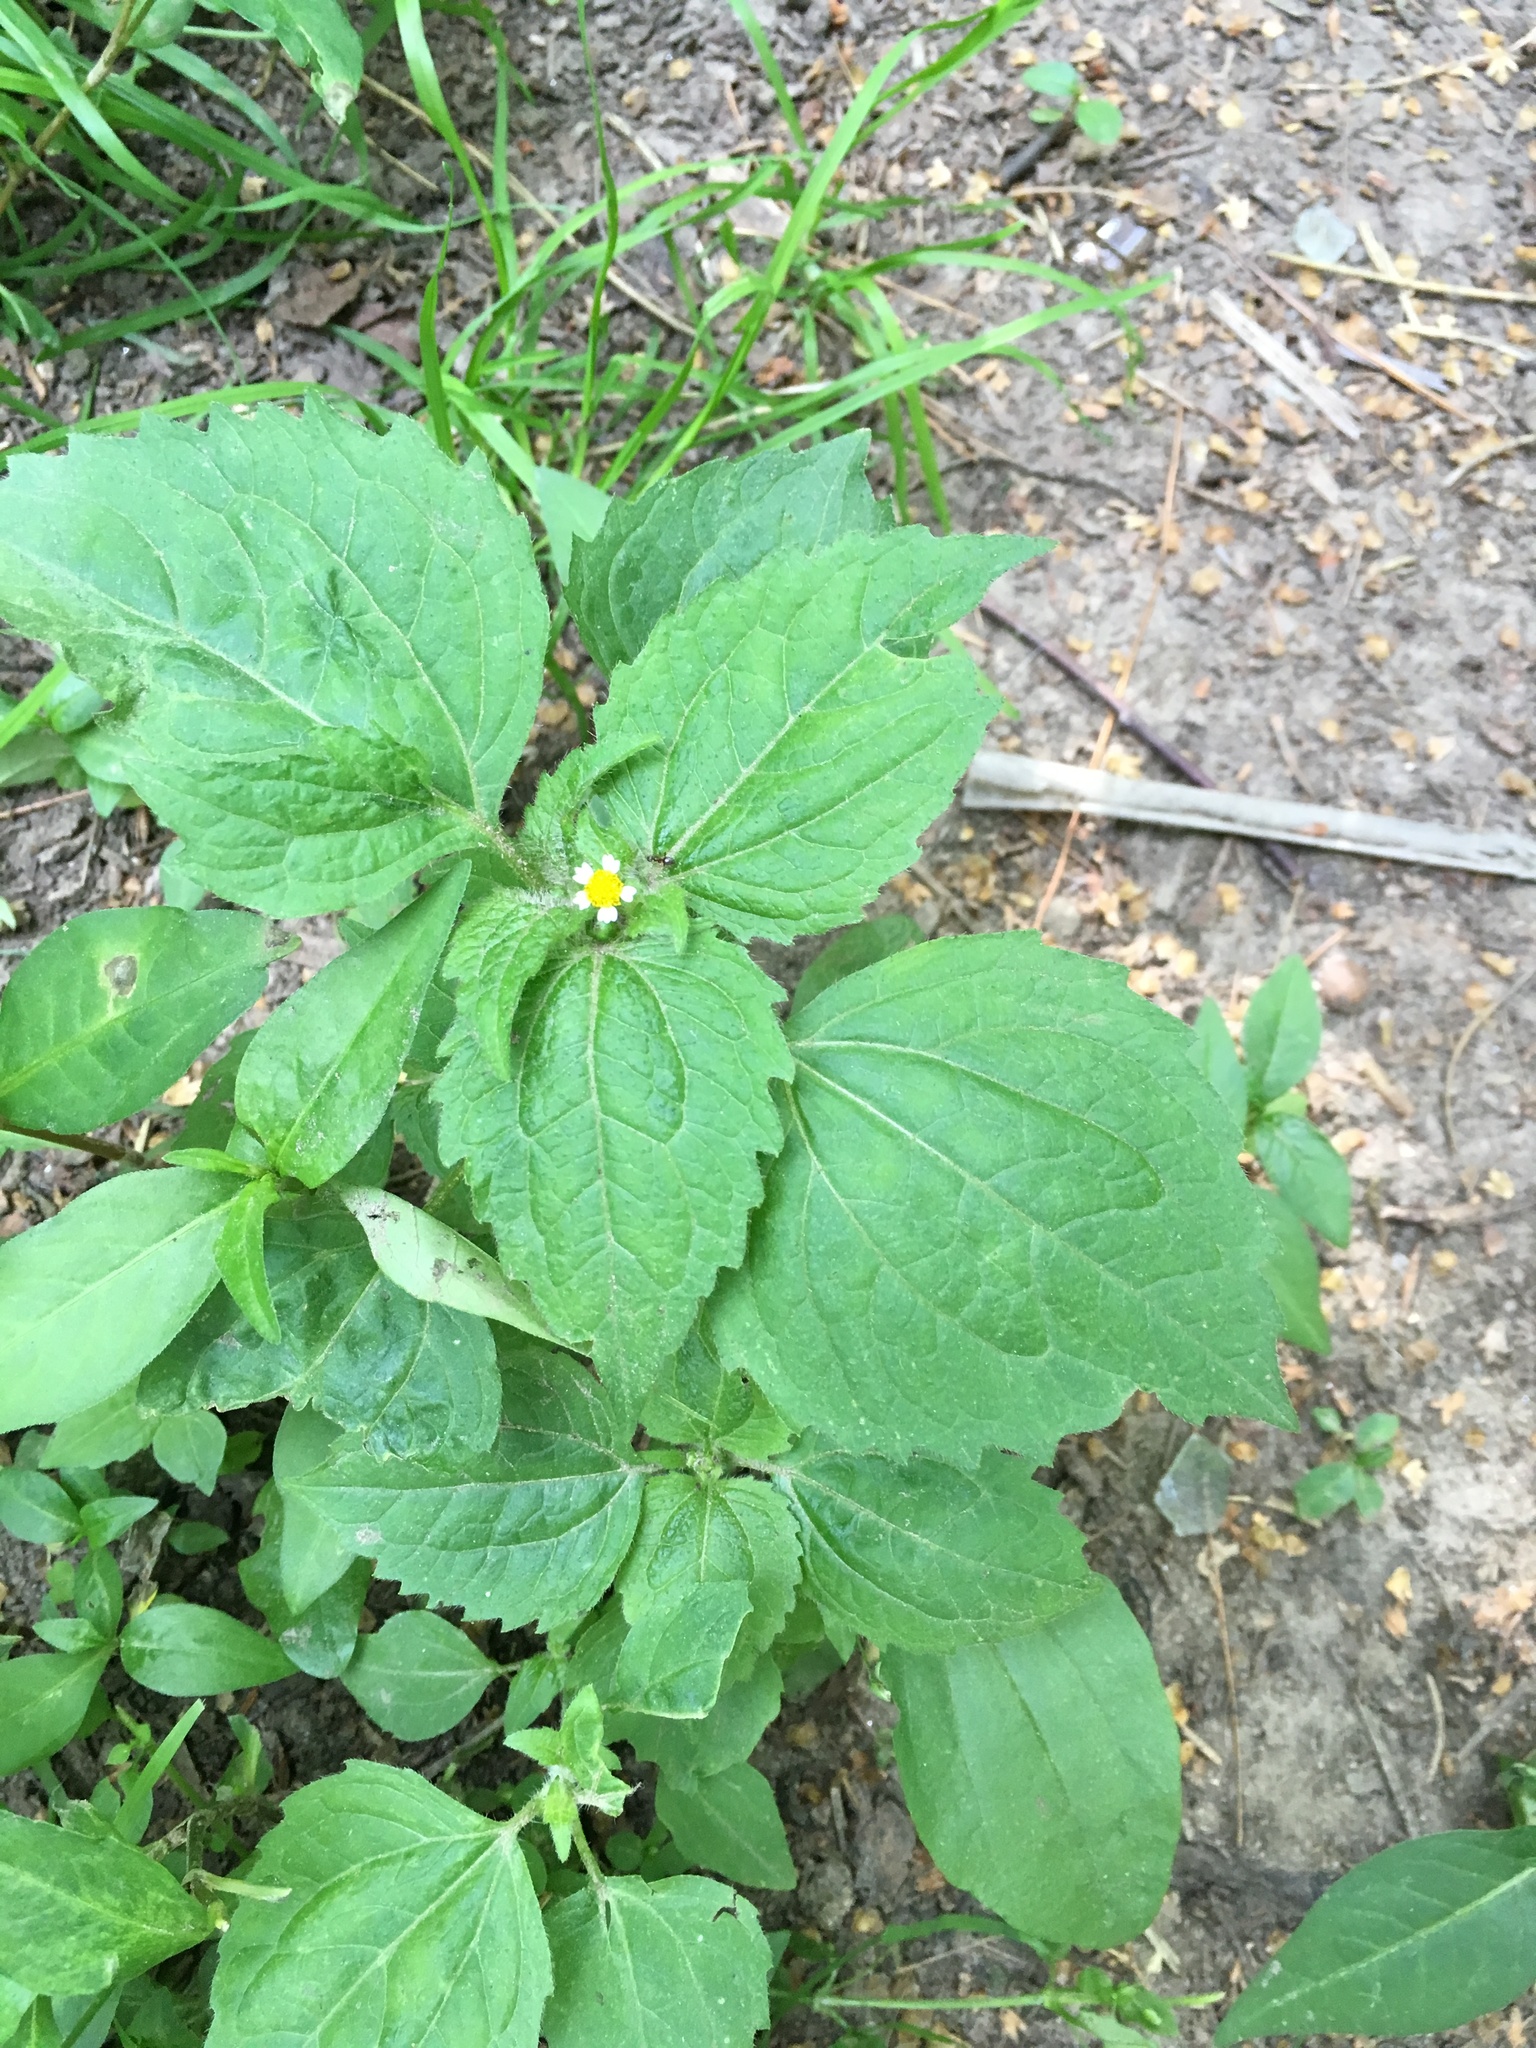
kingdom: Plantae
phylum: Tracheophyta
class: Magnoliopsida
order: Asterales
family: Asteraceae
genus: Galinsoga
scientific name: Galinsoga parviflora
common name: Gallant soldier
